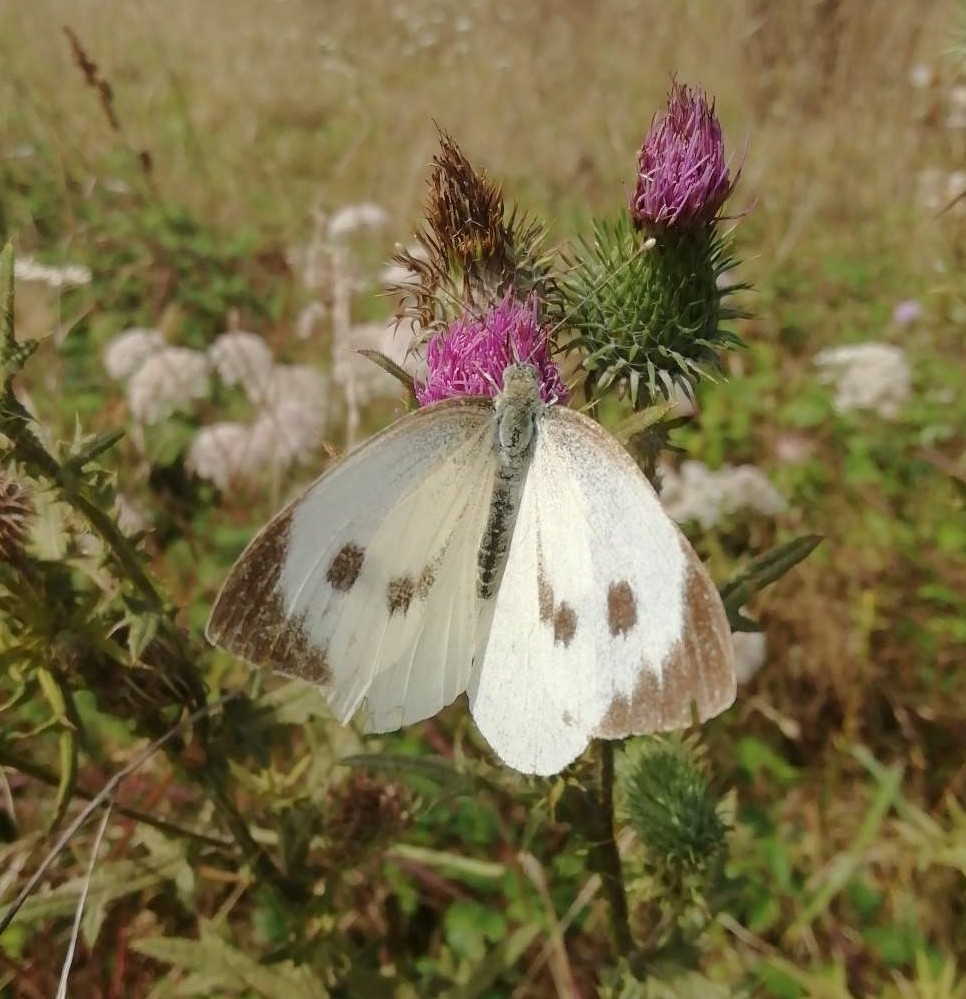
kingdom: Animalia
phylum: Arthropoda
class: Insecta
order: Lepidoptera
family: Pieridae
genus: Pieris
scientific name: Pieris brassicae
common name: Large white
